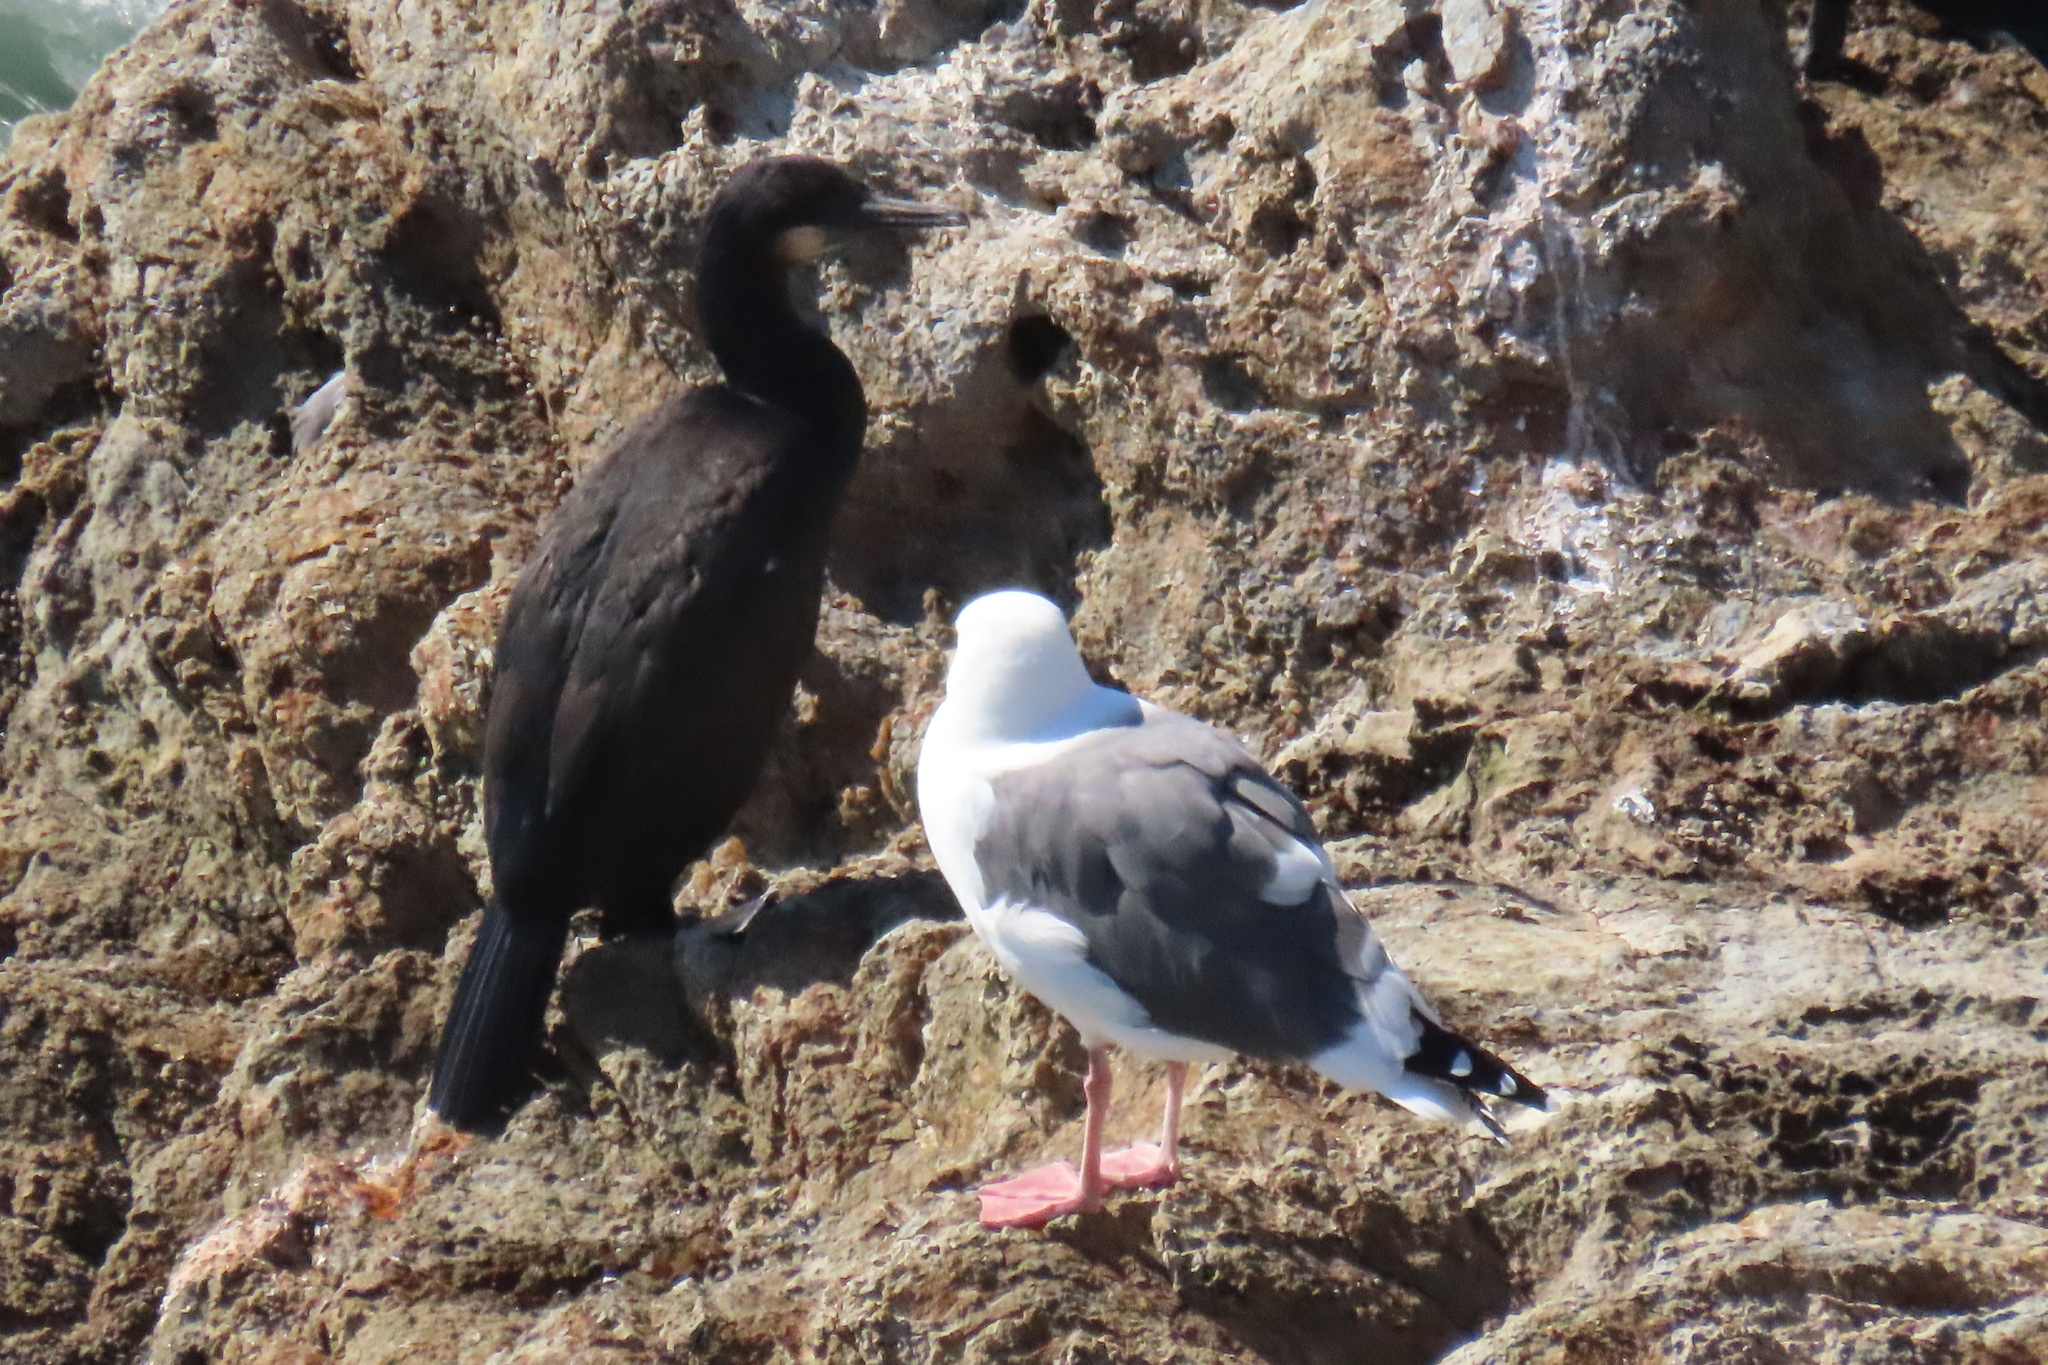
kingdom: Animalia
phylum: Chordata
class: Aves
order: Suliformes
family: Phalacrocoracidae
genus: Urile
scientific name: Urile penicillatus
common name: Brandt's cormorant
